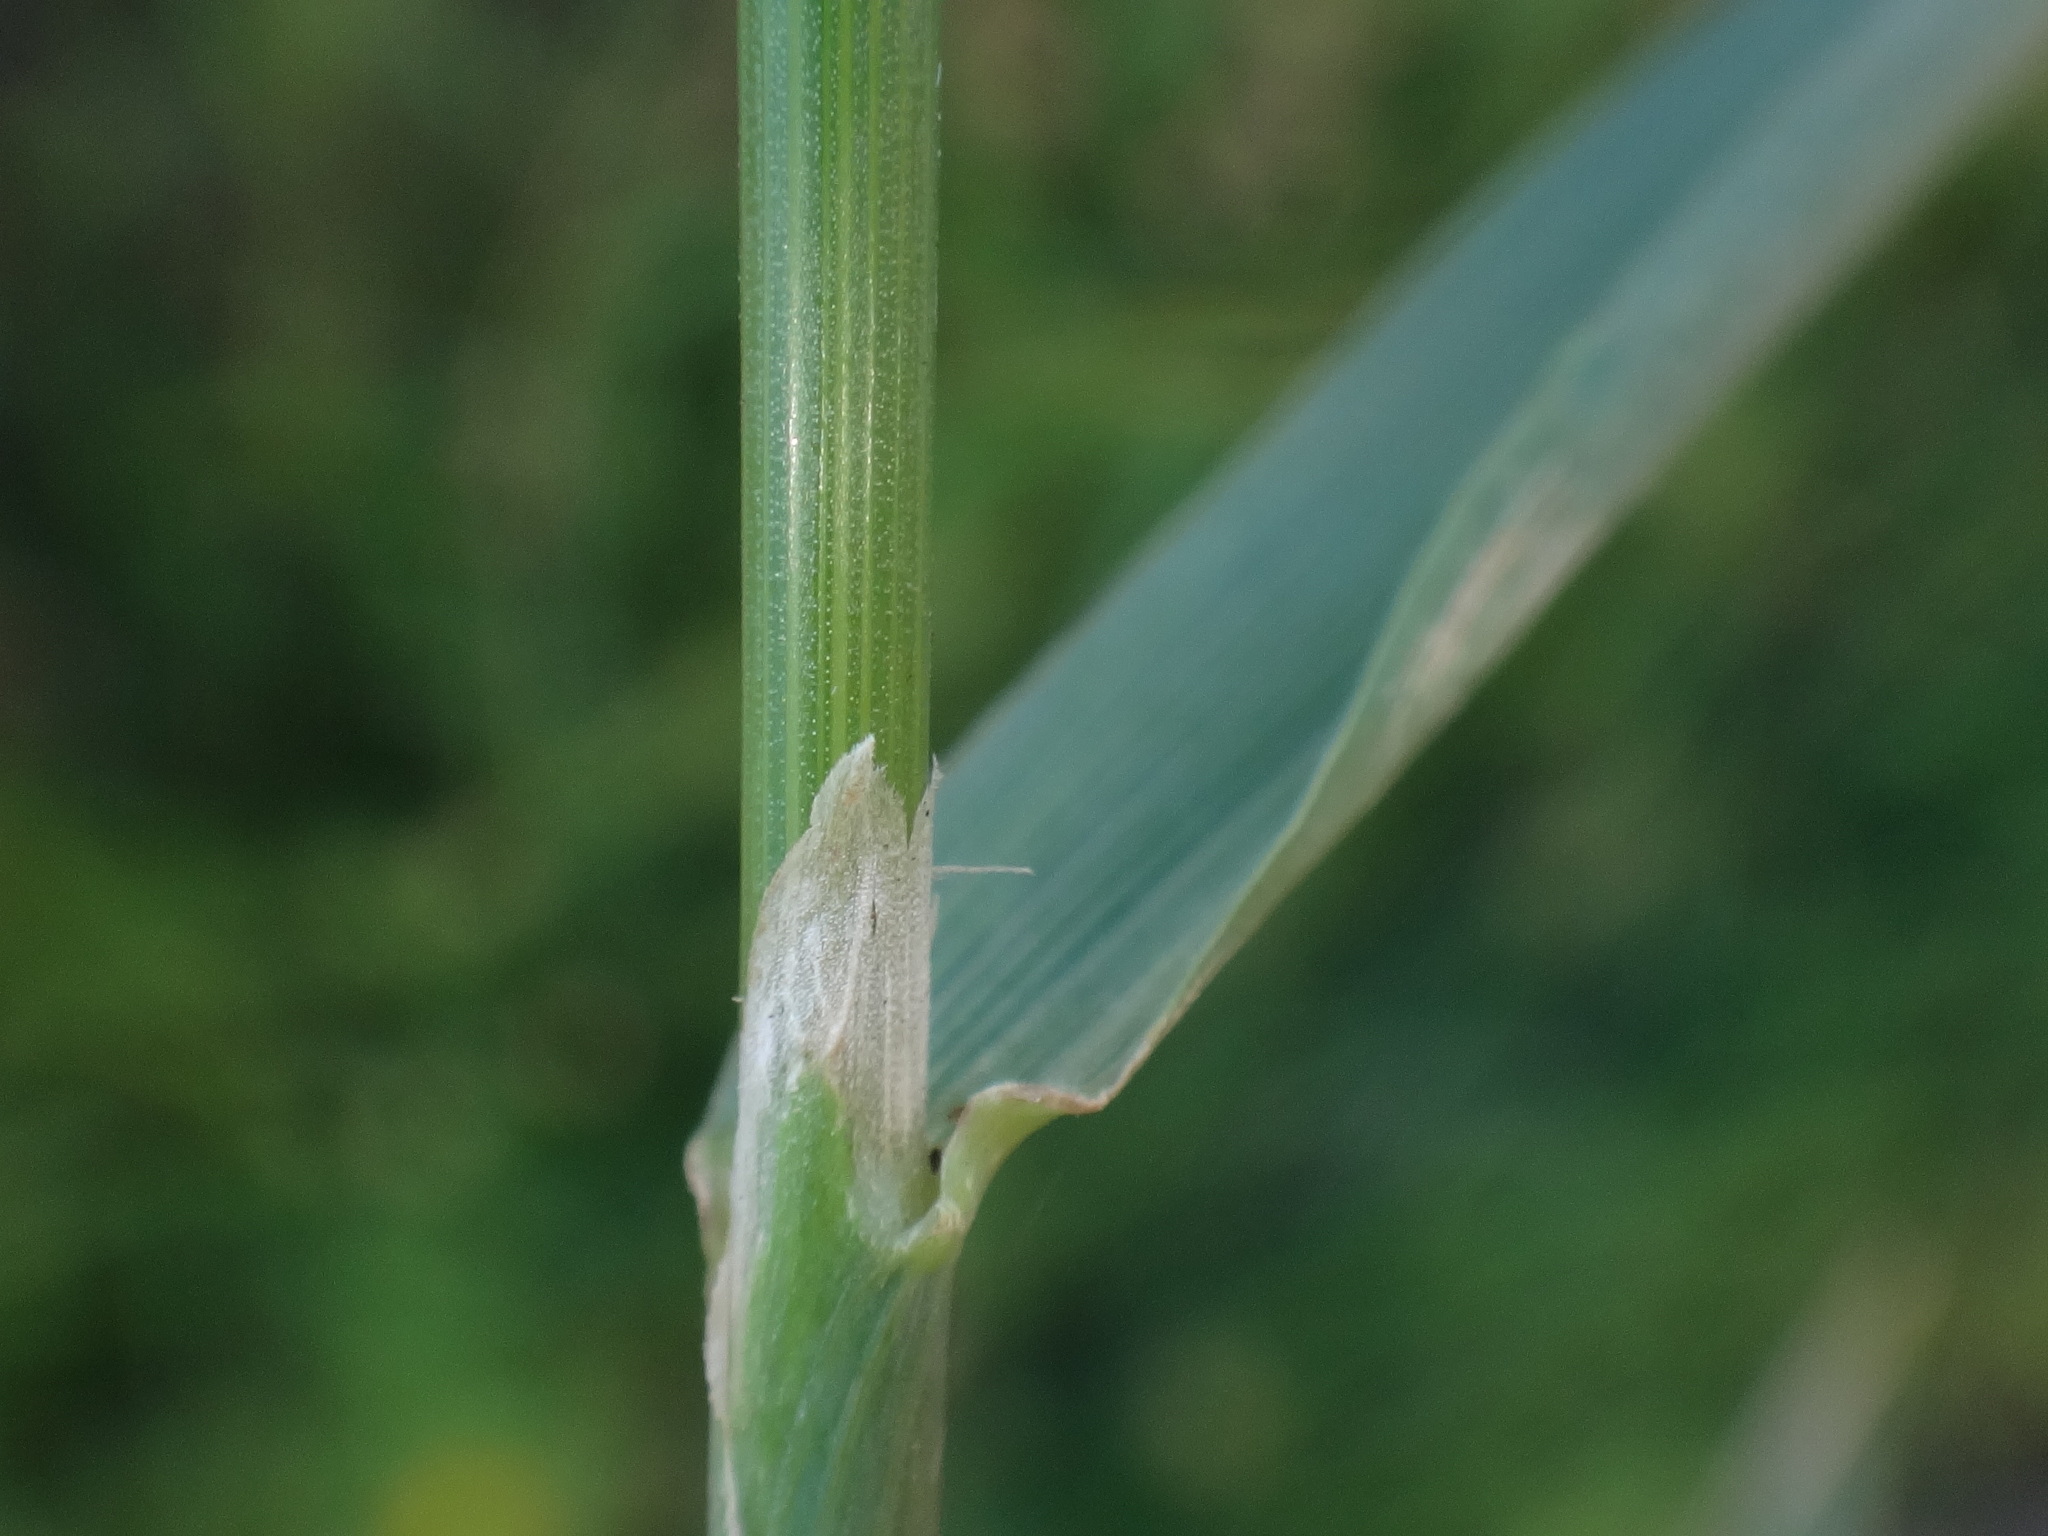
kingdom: Plantae
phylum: Tracheophyta
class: Liliopsida
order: Poales
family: Poaceae
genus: Polypogon
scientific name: Polypogon viridis
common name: Water bent
